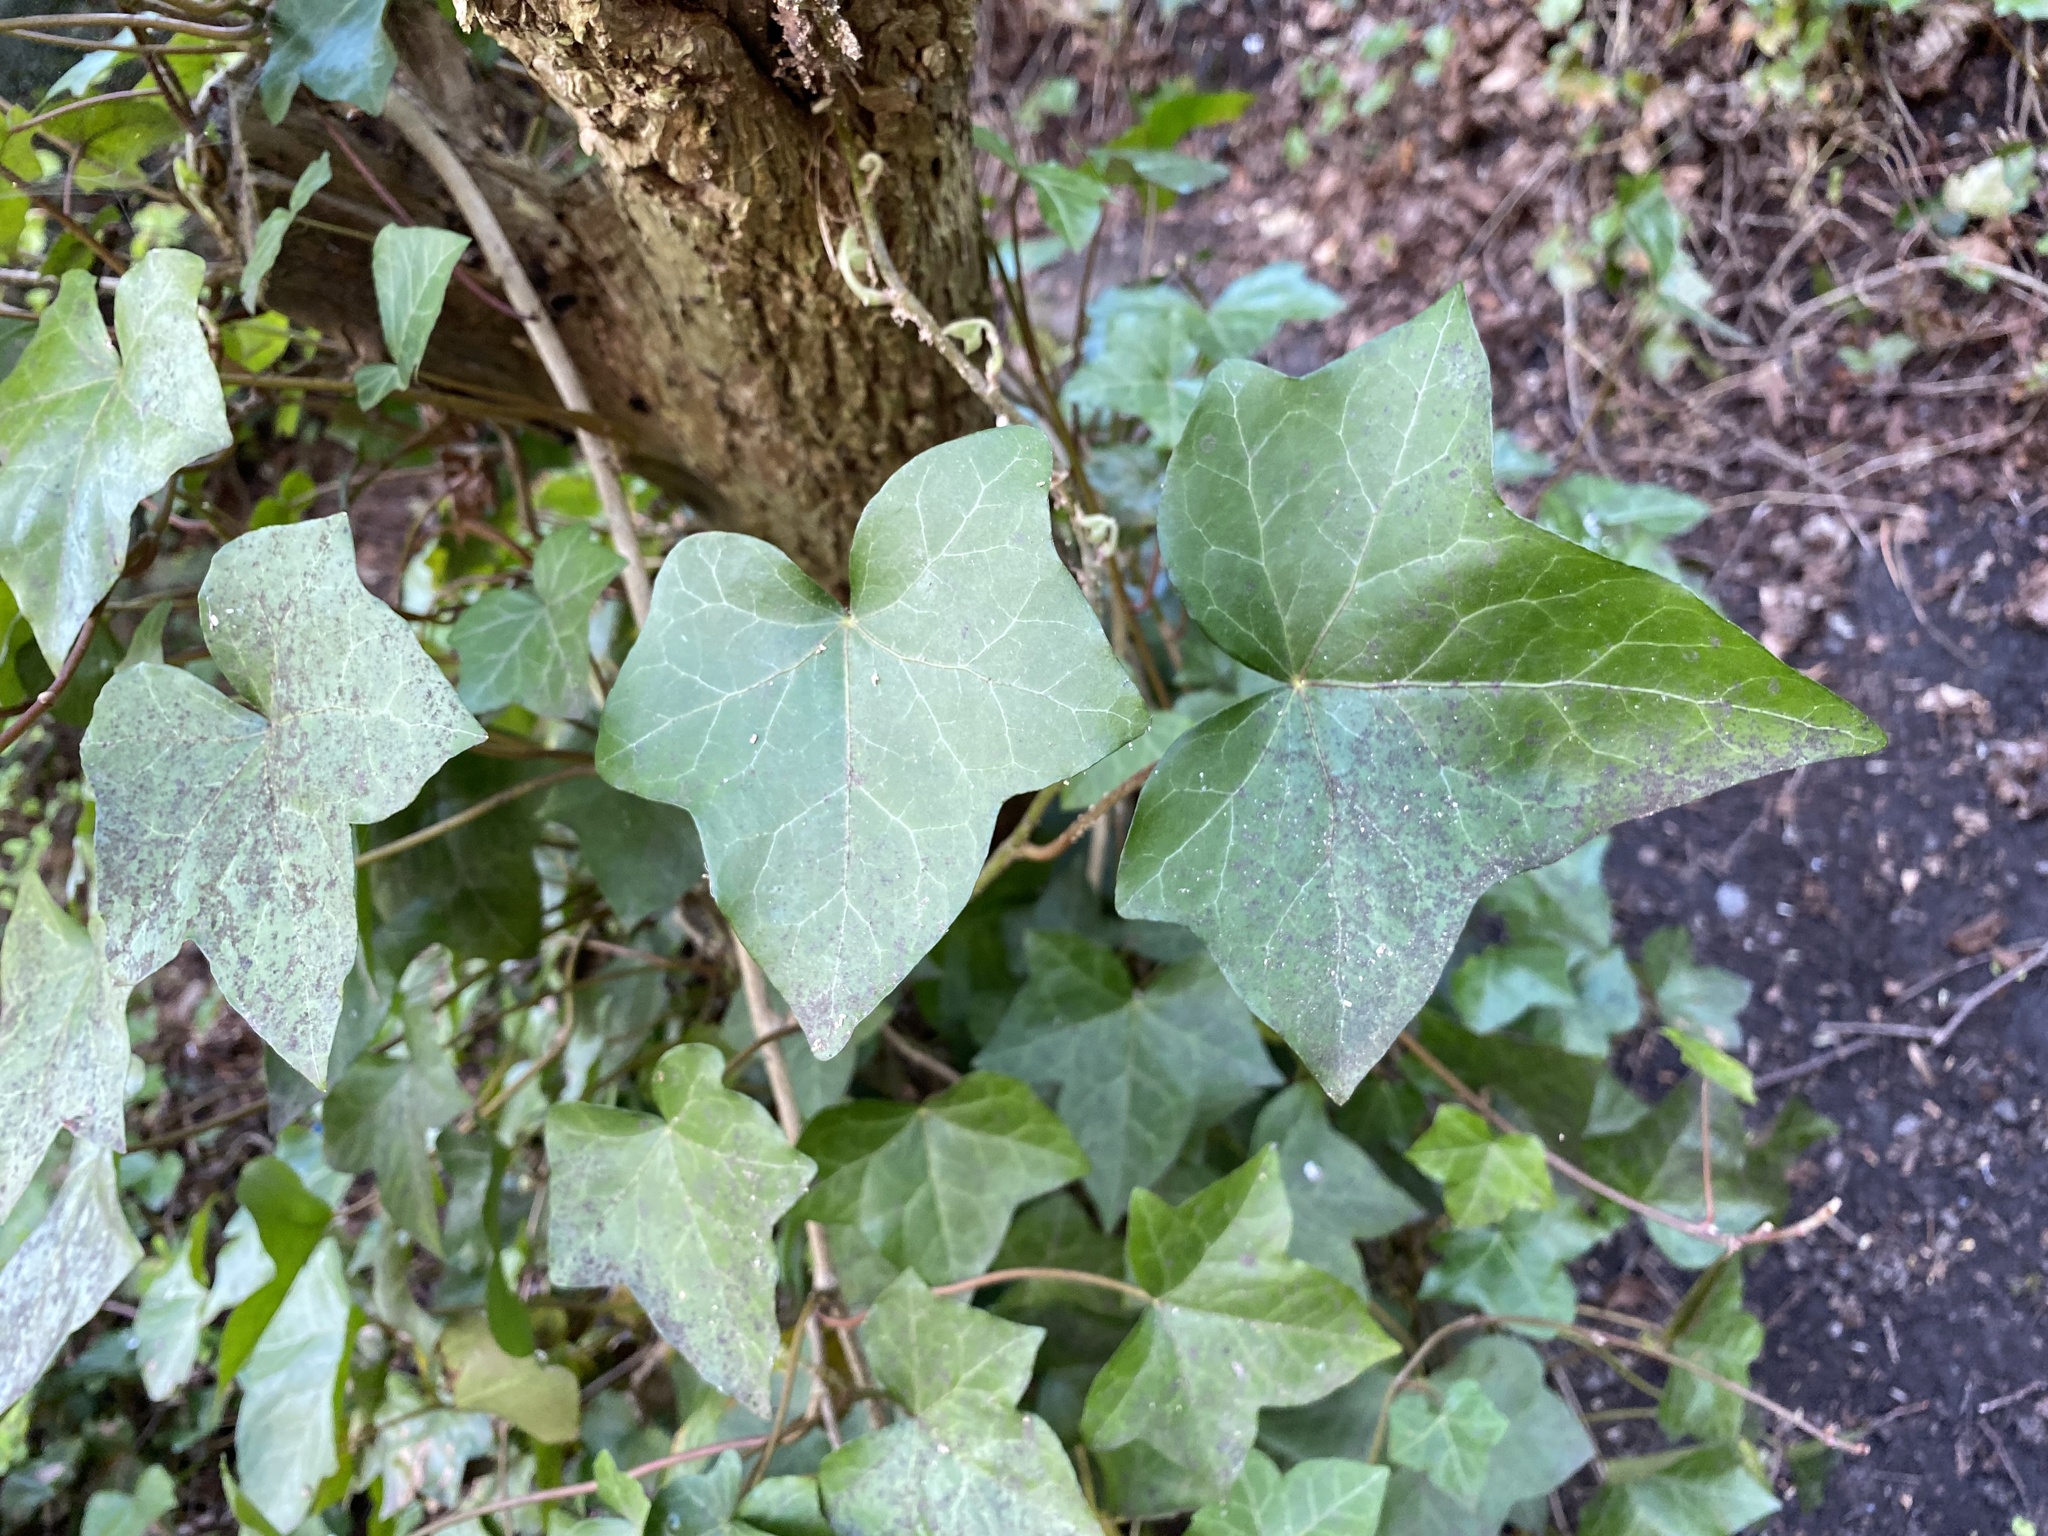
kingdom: Plantae
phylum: Tracheophyta
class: Magnoliopsida
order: Apiales
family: Araliaceae
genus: Hedera
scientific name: Hedera helix
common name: Ivy
